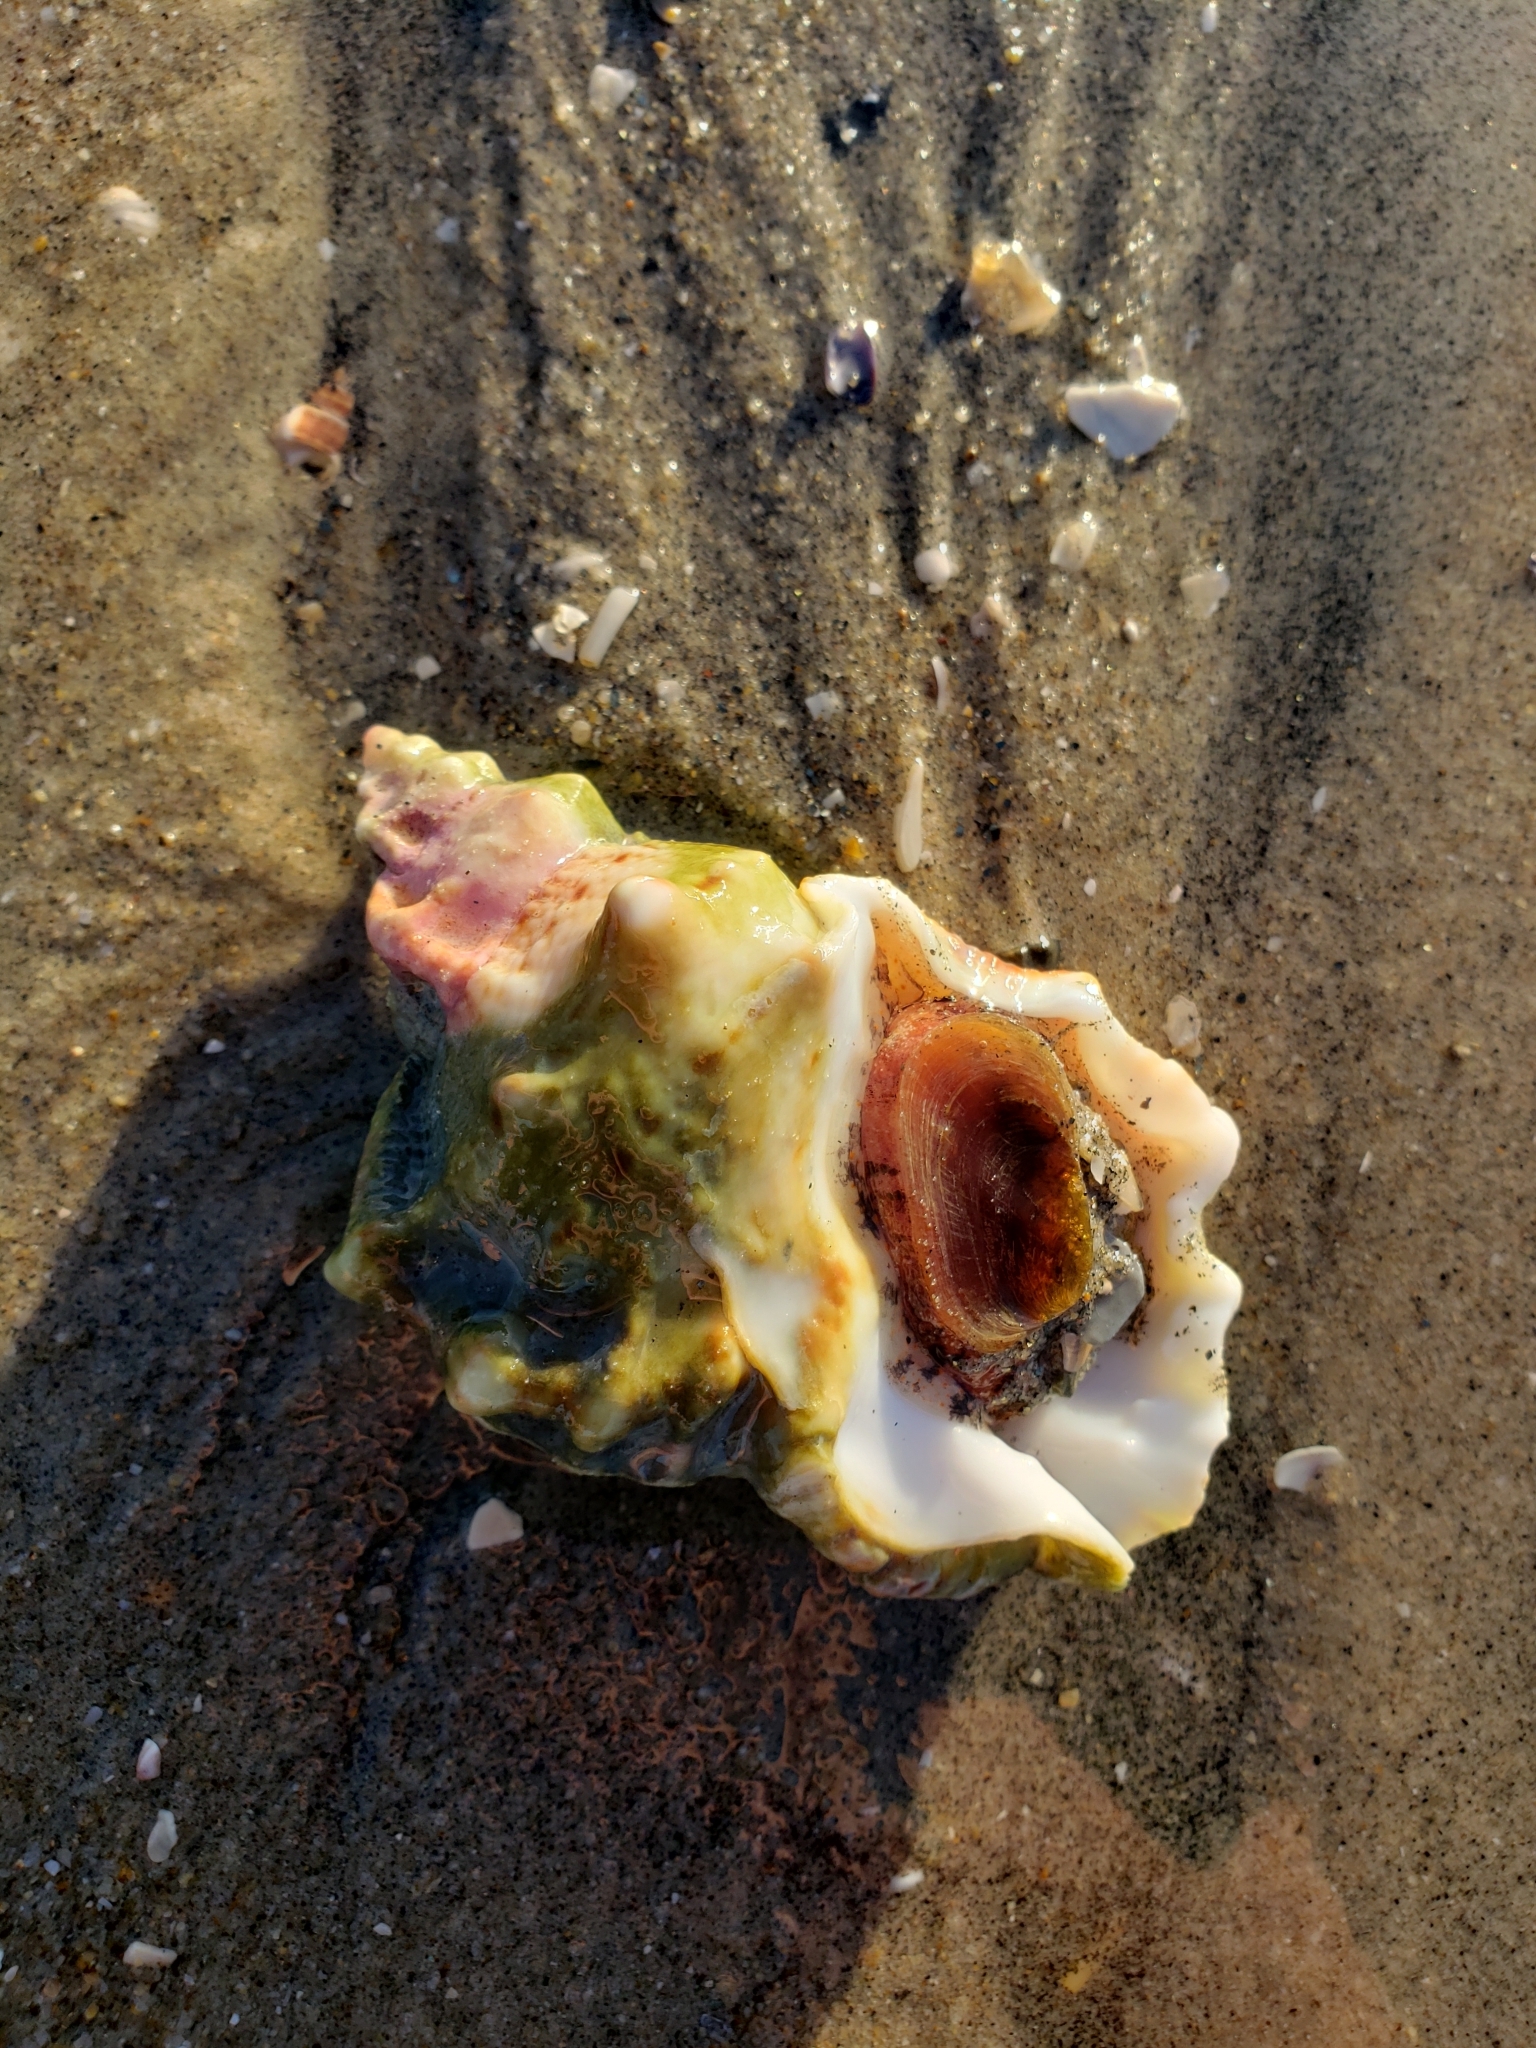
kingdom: Animalia
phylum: Mollusca
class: Gastropoda
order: Littorinimorpha
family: Bursidae
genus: Crossata
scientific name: Crossata californica
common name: California frogsnail
